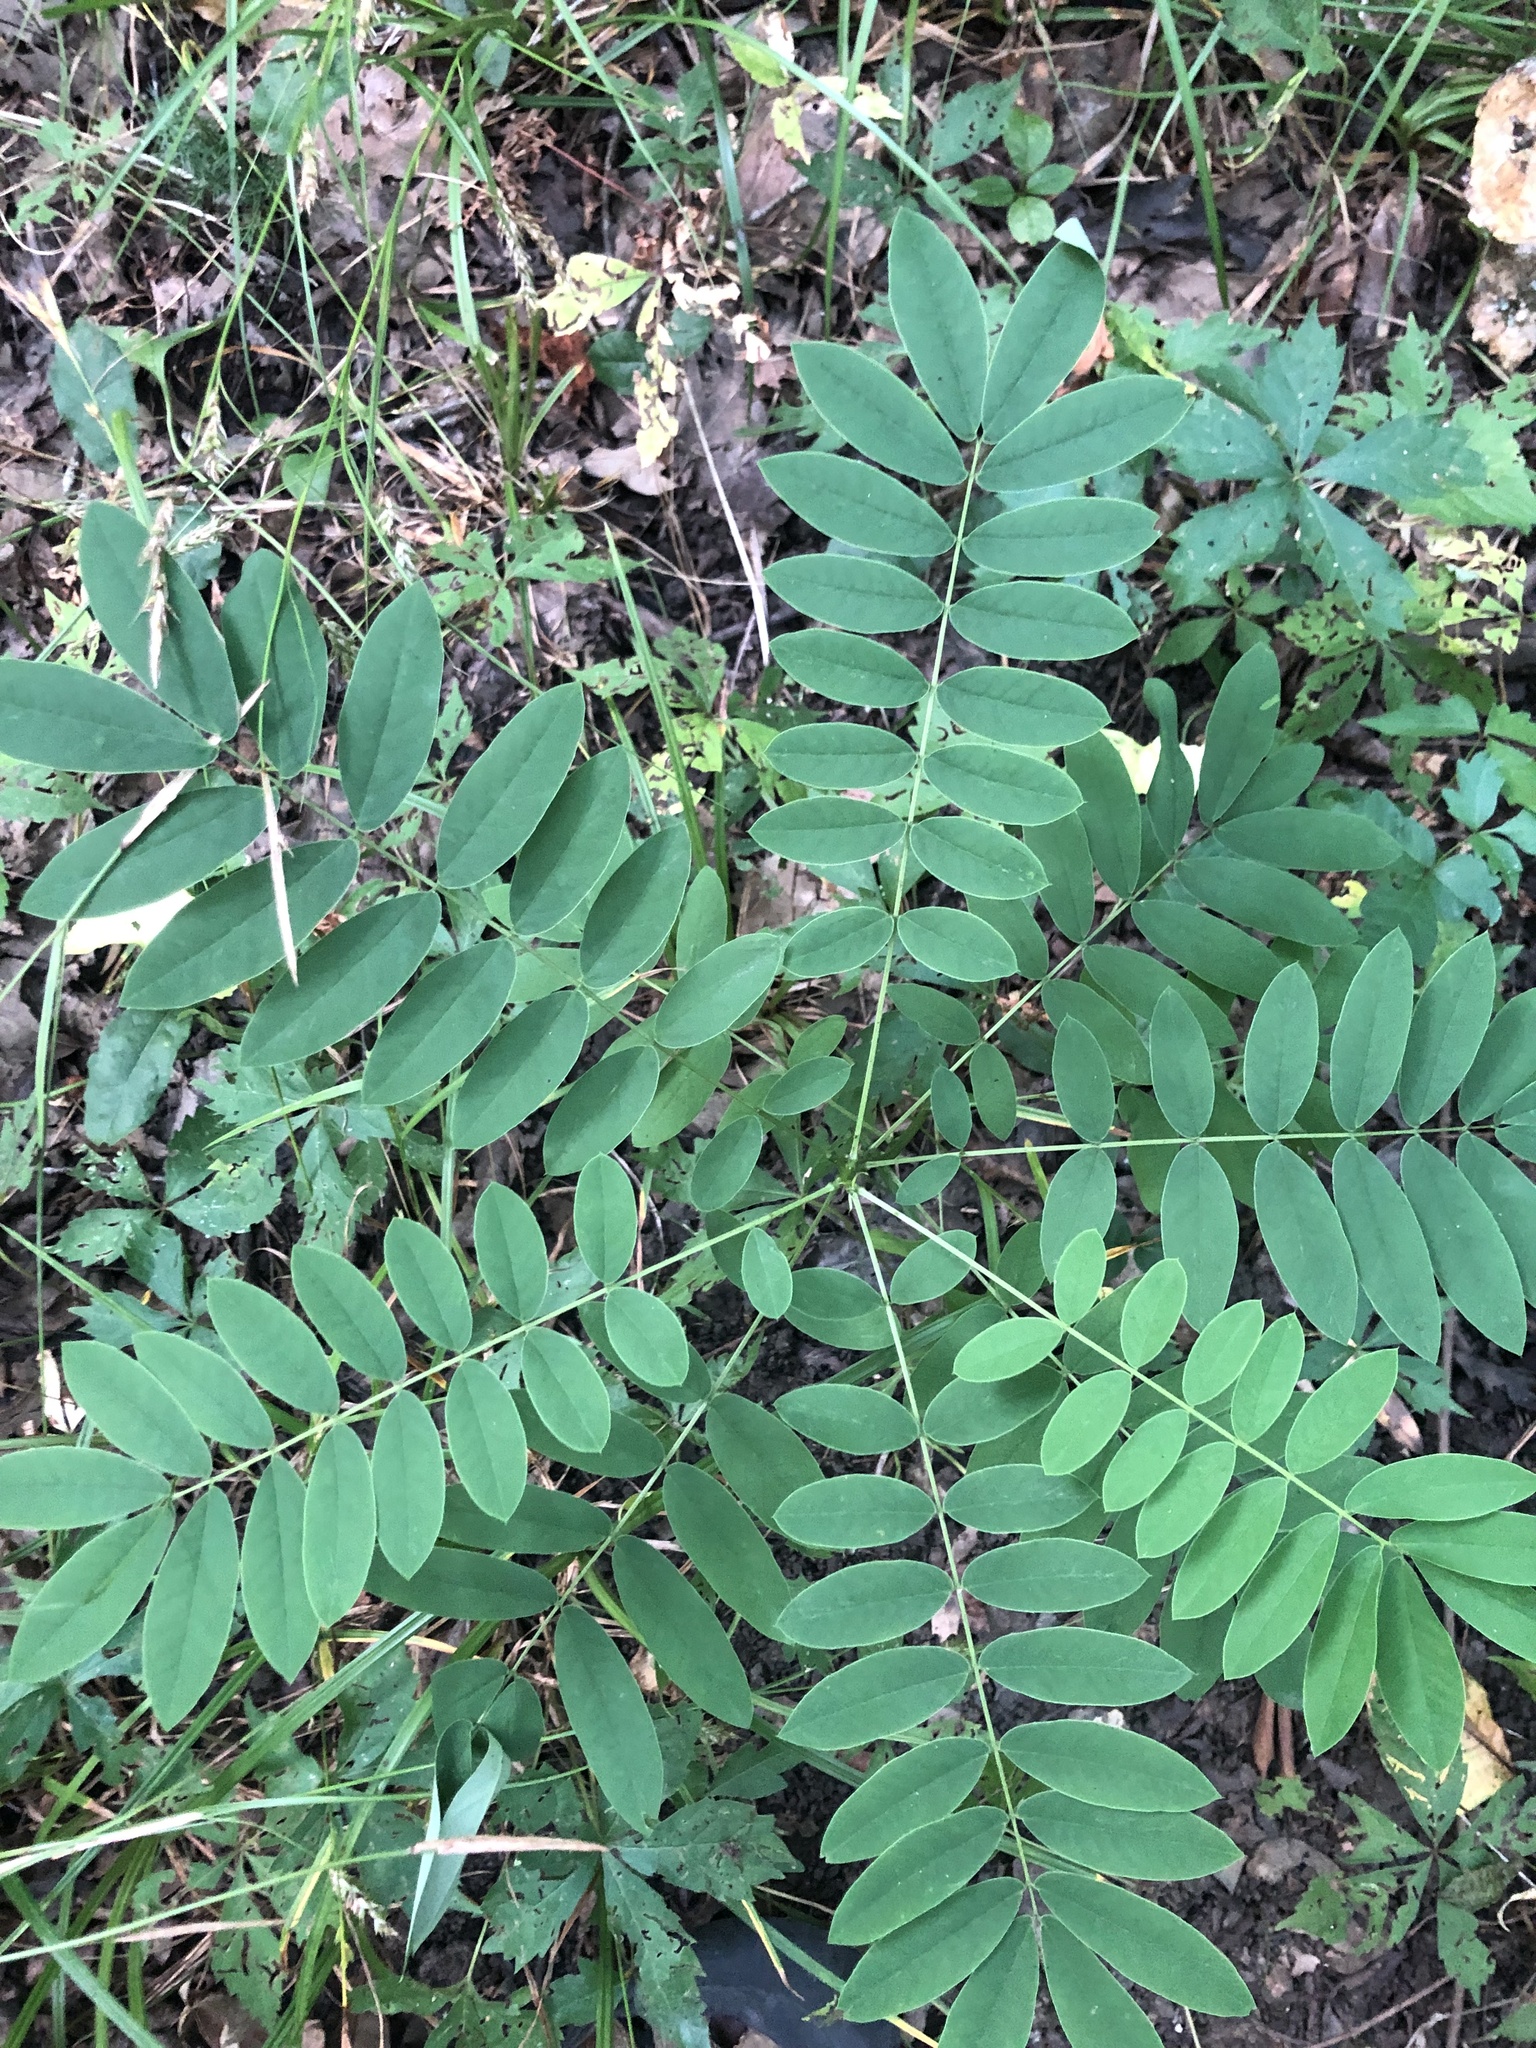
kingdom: Plantae
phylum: Tracheophyta
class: Magnoliopsida
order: Fabales
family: Fabaceae
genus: Senna
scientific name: Senna marilandica
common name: American senna
